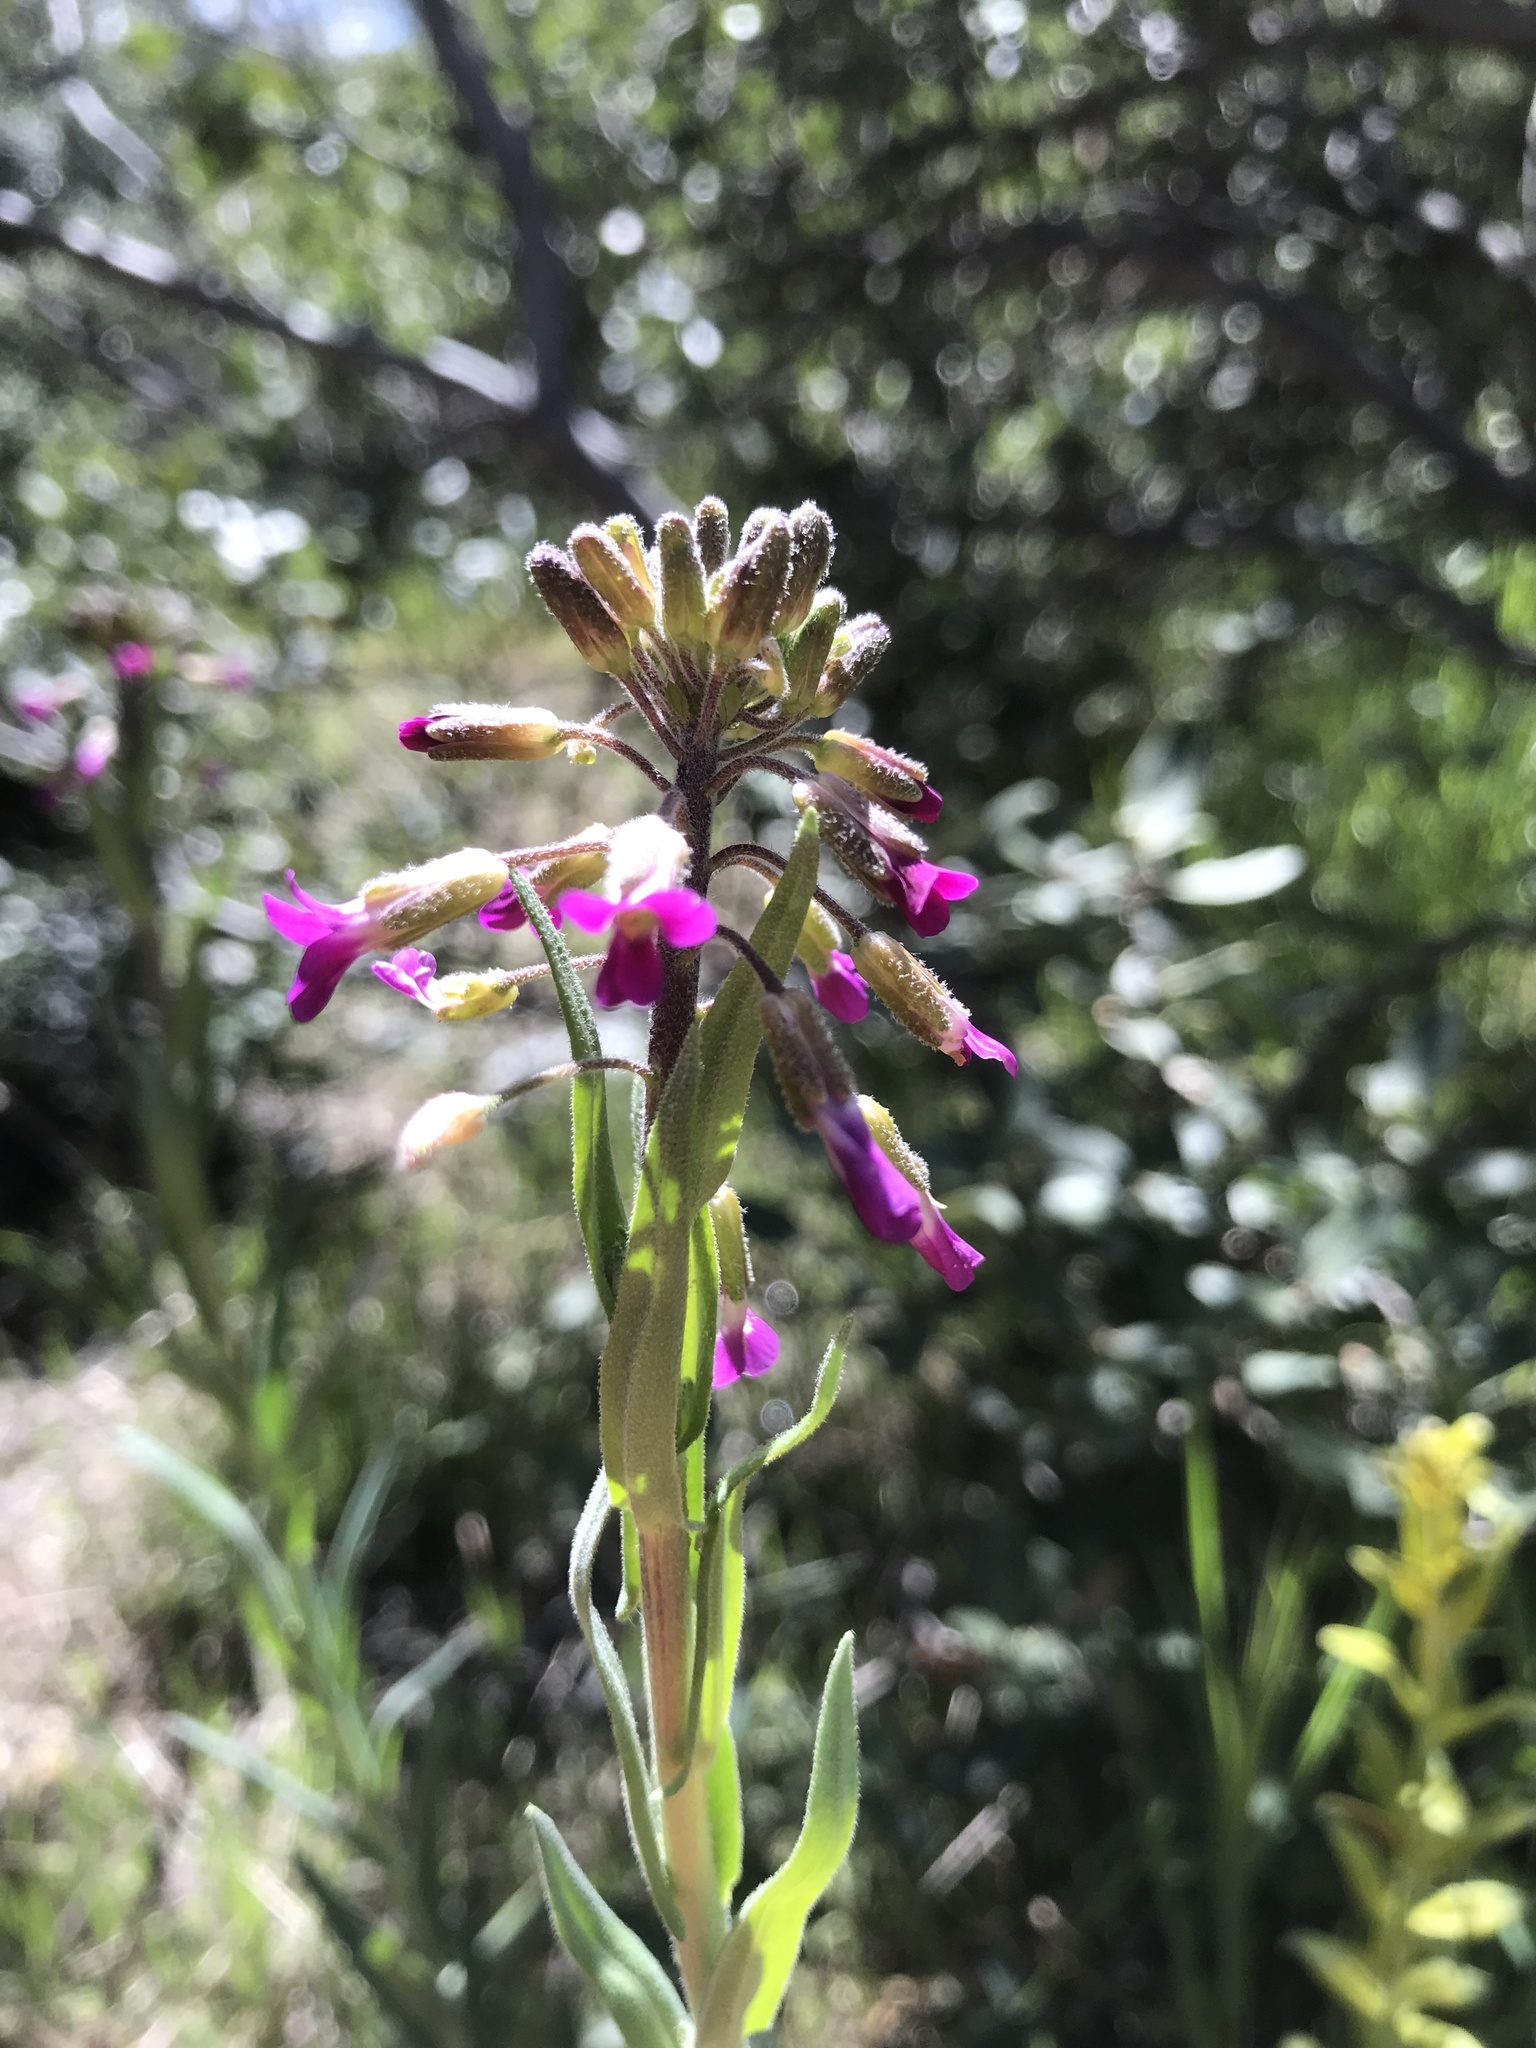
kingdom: Plantae
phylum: Tracheophyta
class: Magnoliopsida
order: Brassicales
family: Brassicaceae
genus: Boechera
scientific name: Boechera californica
